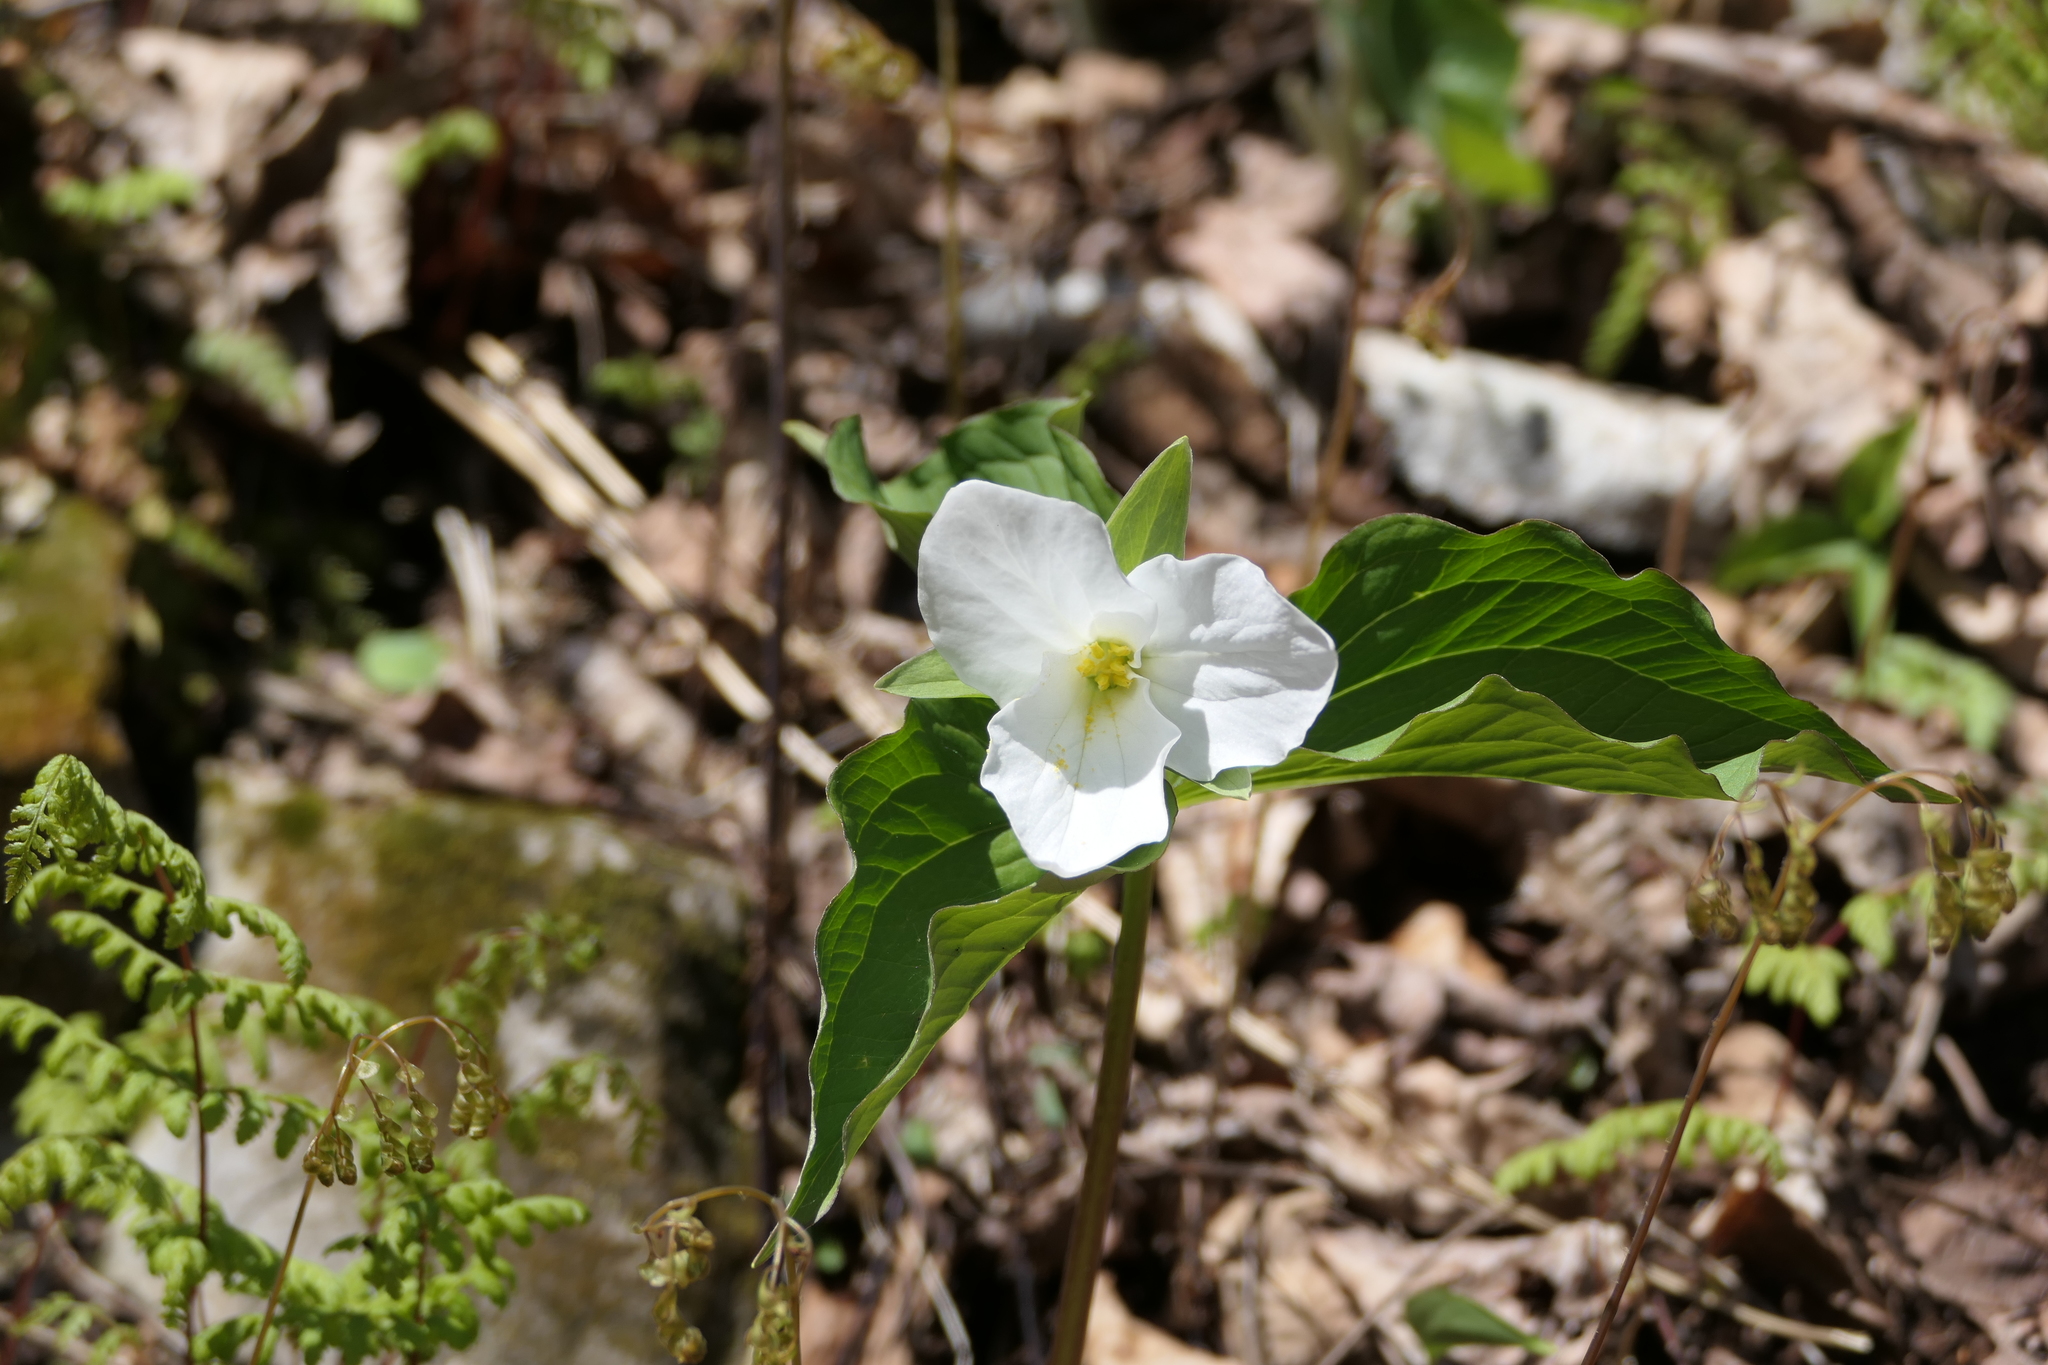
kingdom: Plantae
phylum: Tracheophyta
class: Liliopsida
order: Liliales
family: Melanthiaceae
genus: Trillium
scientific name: Trillium grandiflorum
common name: Great white trillium
